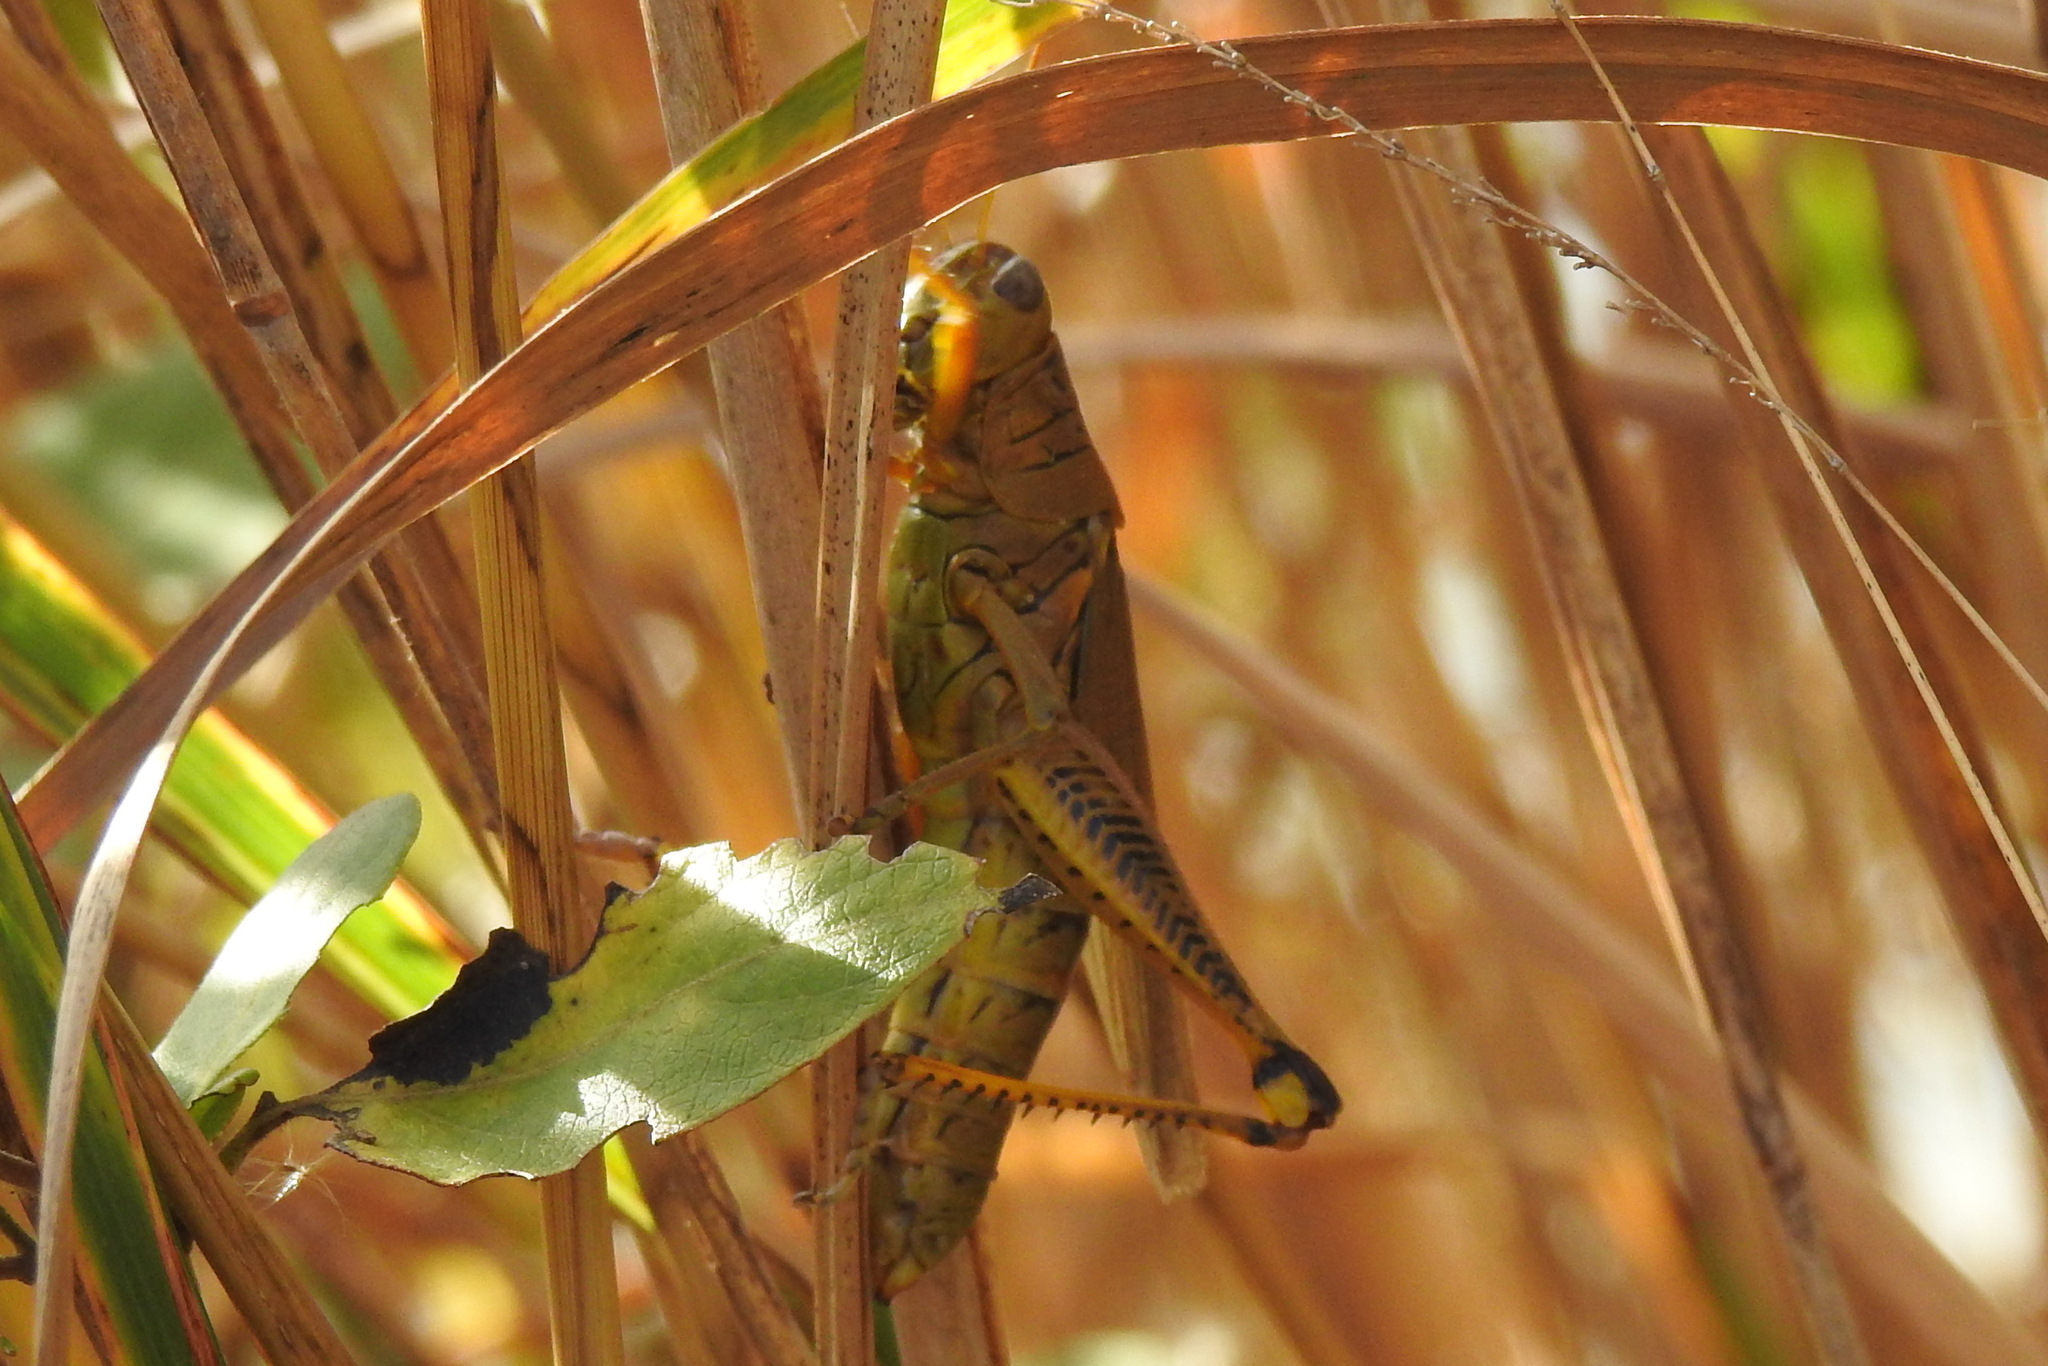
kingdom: Animalia
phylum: Arthropoda
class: Insecta
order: Orthoptera
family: Acrididae
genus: Melanoplus
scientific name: Melanoplus differentialis
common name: Differential grasshopper
